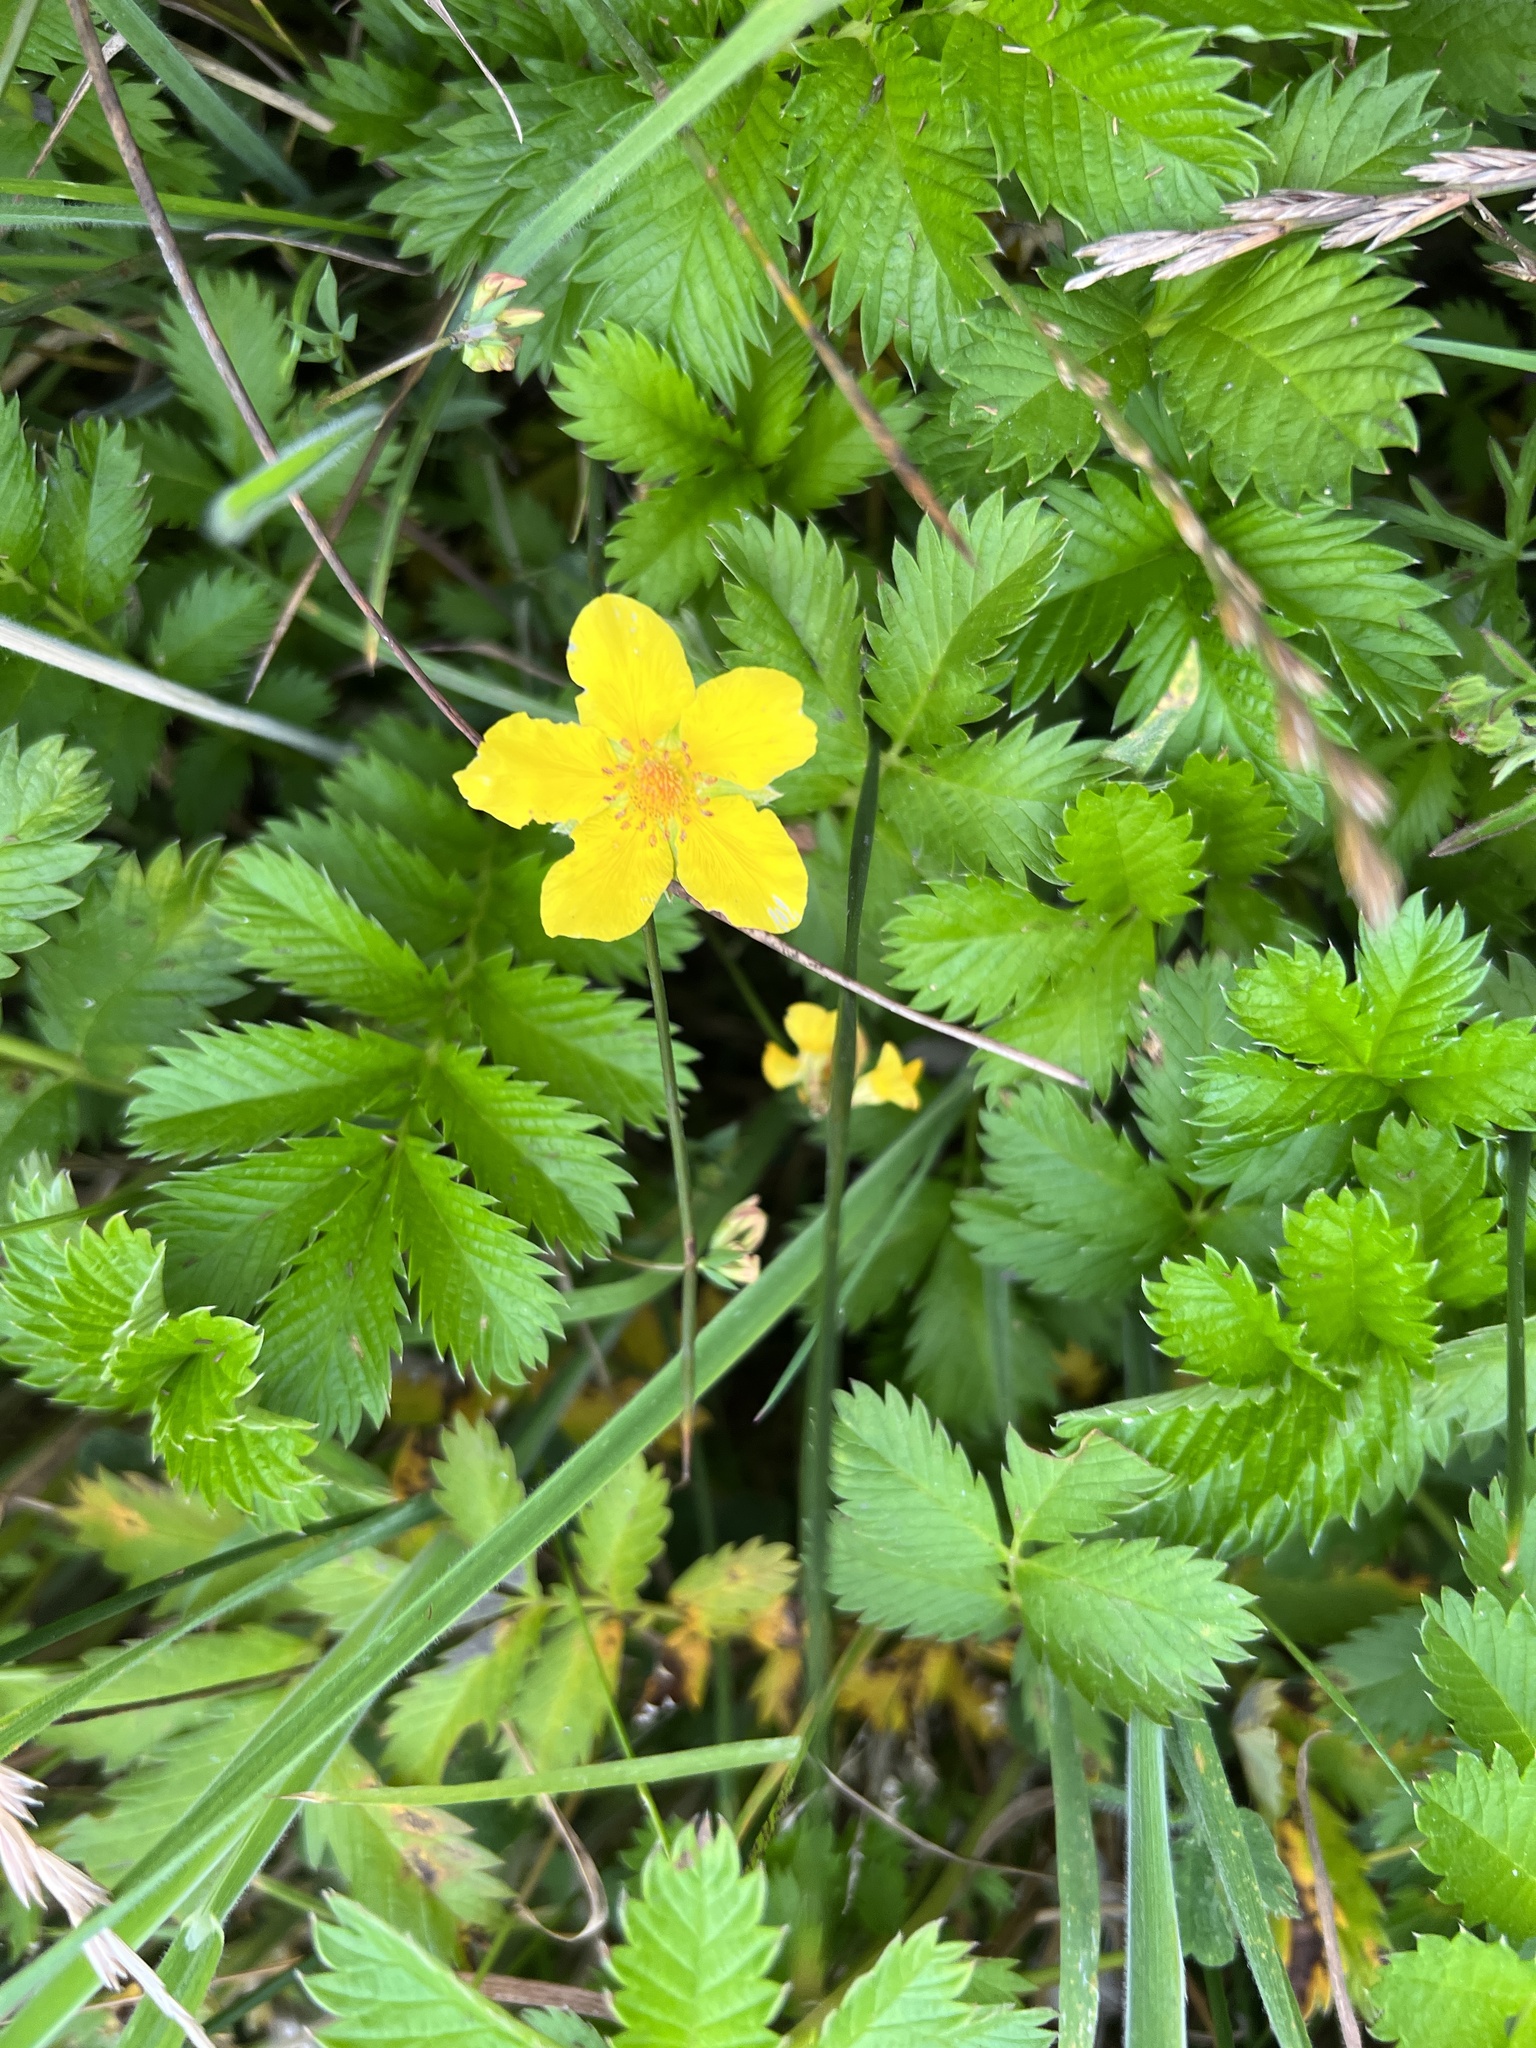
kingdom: Plantae
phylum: Tracheophyta
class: Magnoliopsida
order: Rosales
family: Rosaceae
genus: Argentina
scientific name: Argentina anserina
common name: Common silverweed
